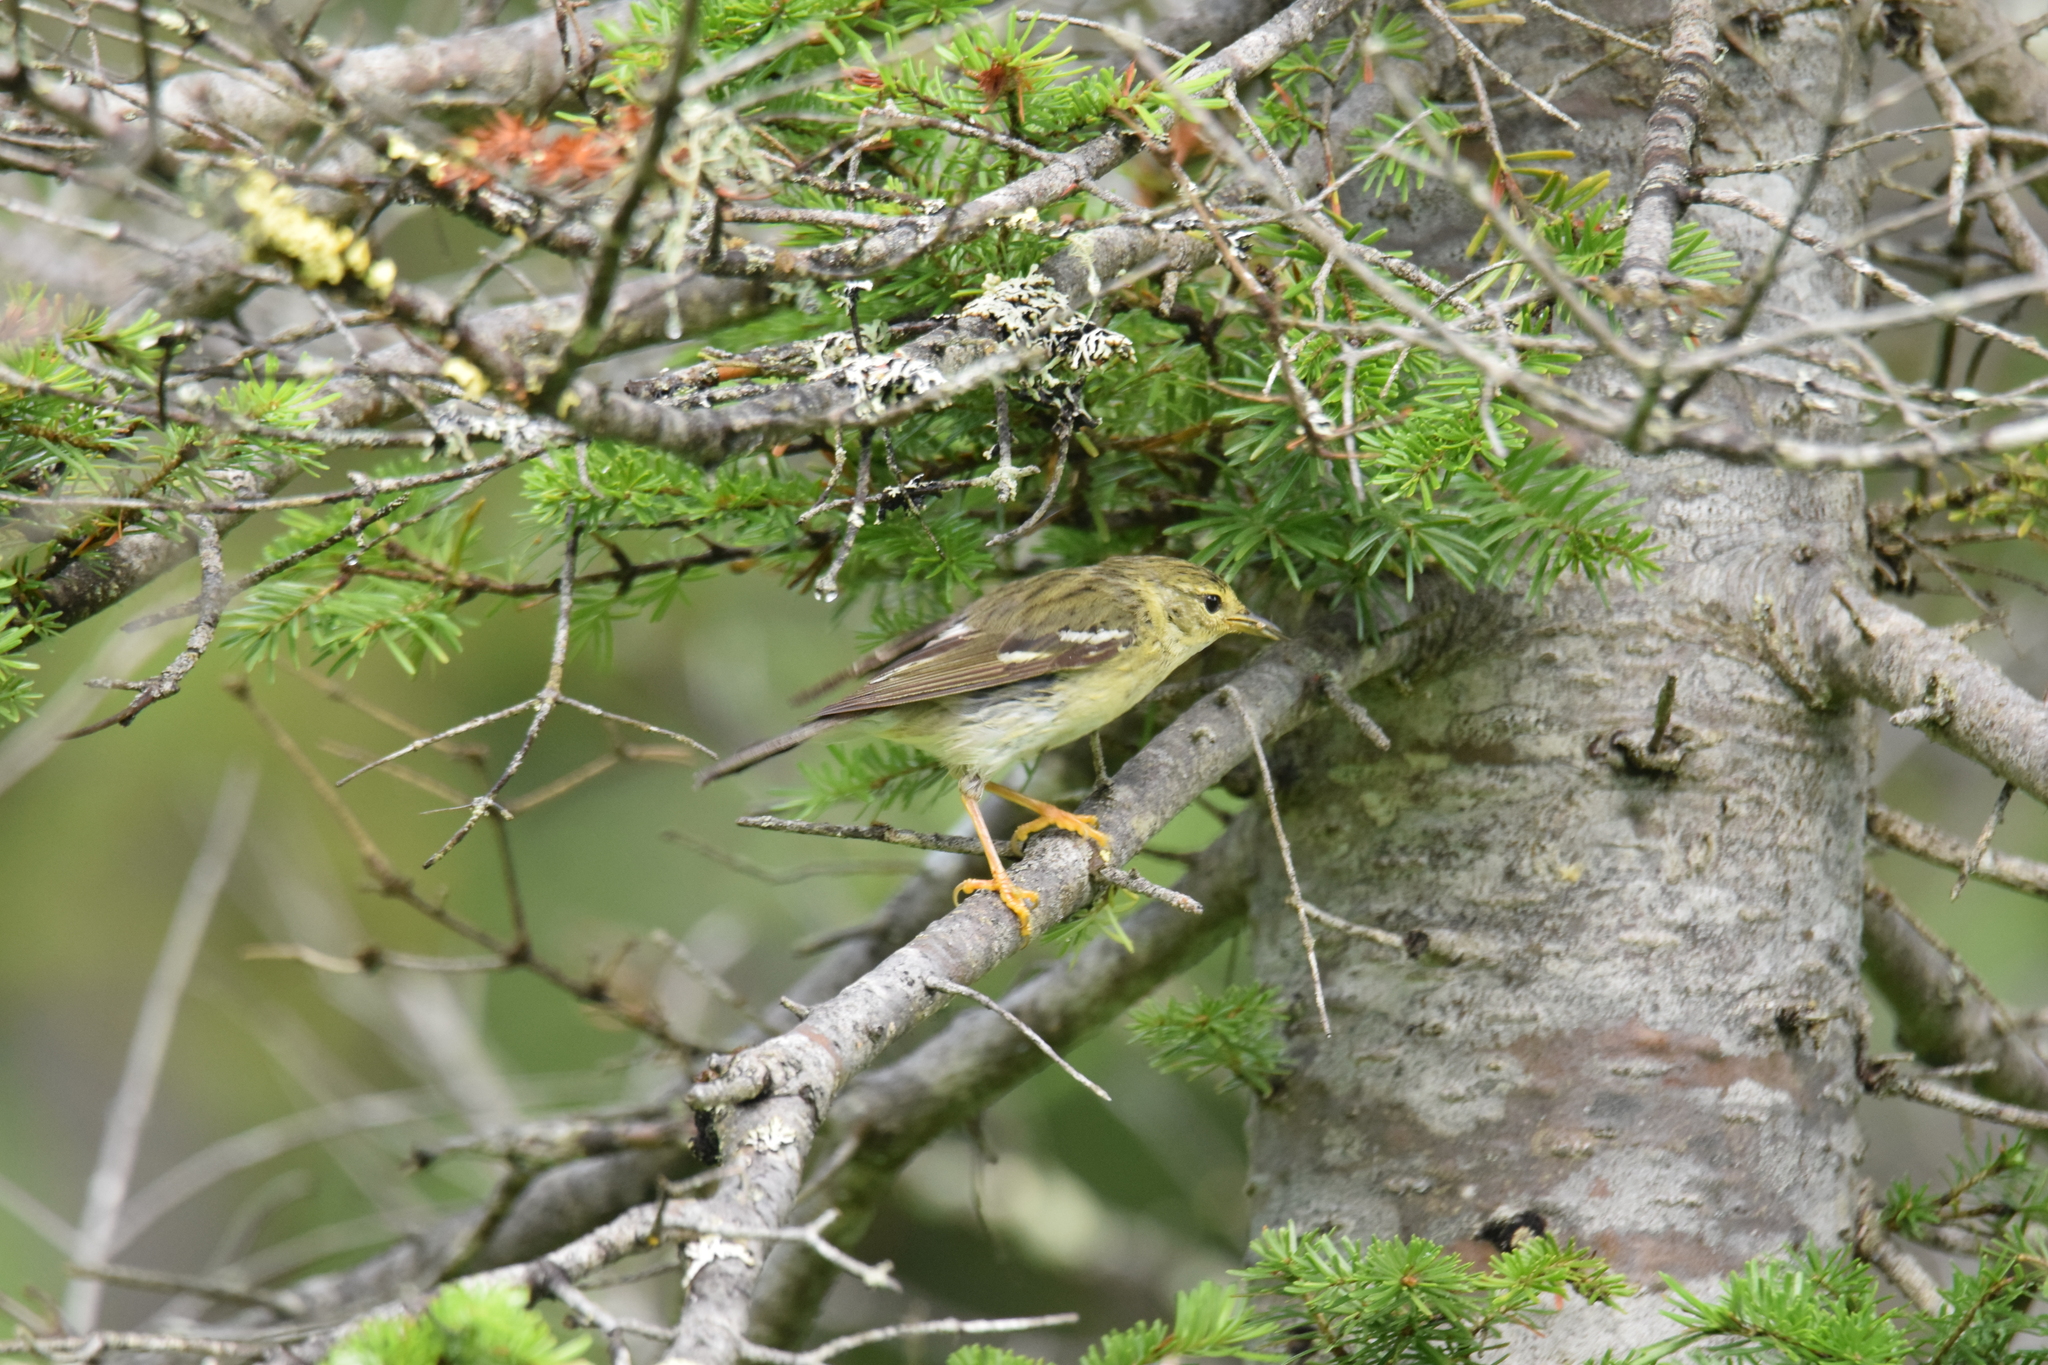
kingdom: Animalia
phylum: Chordata
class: Aves
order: Passeriformes
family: Parulidae
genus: Setophaga
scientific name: Setophaga striata
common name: Blackpoll warbler
